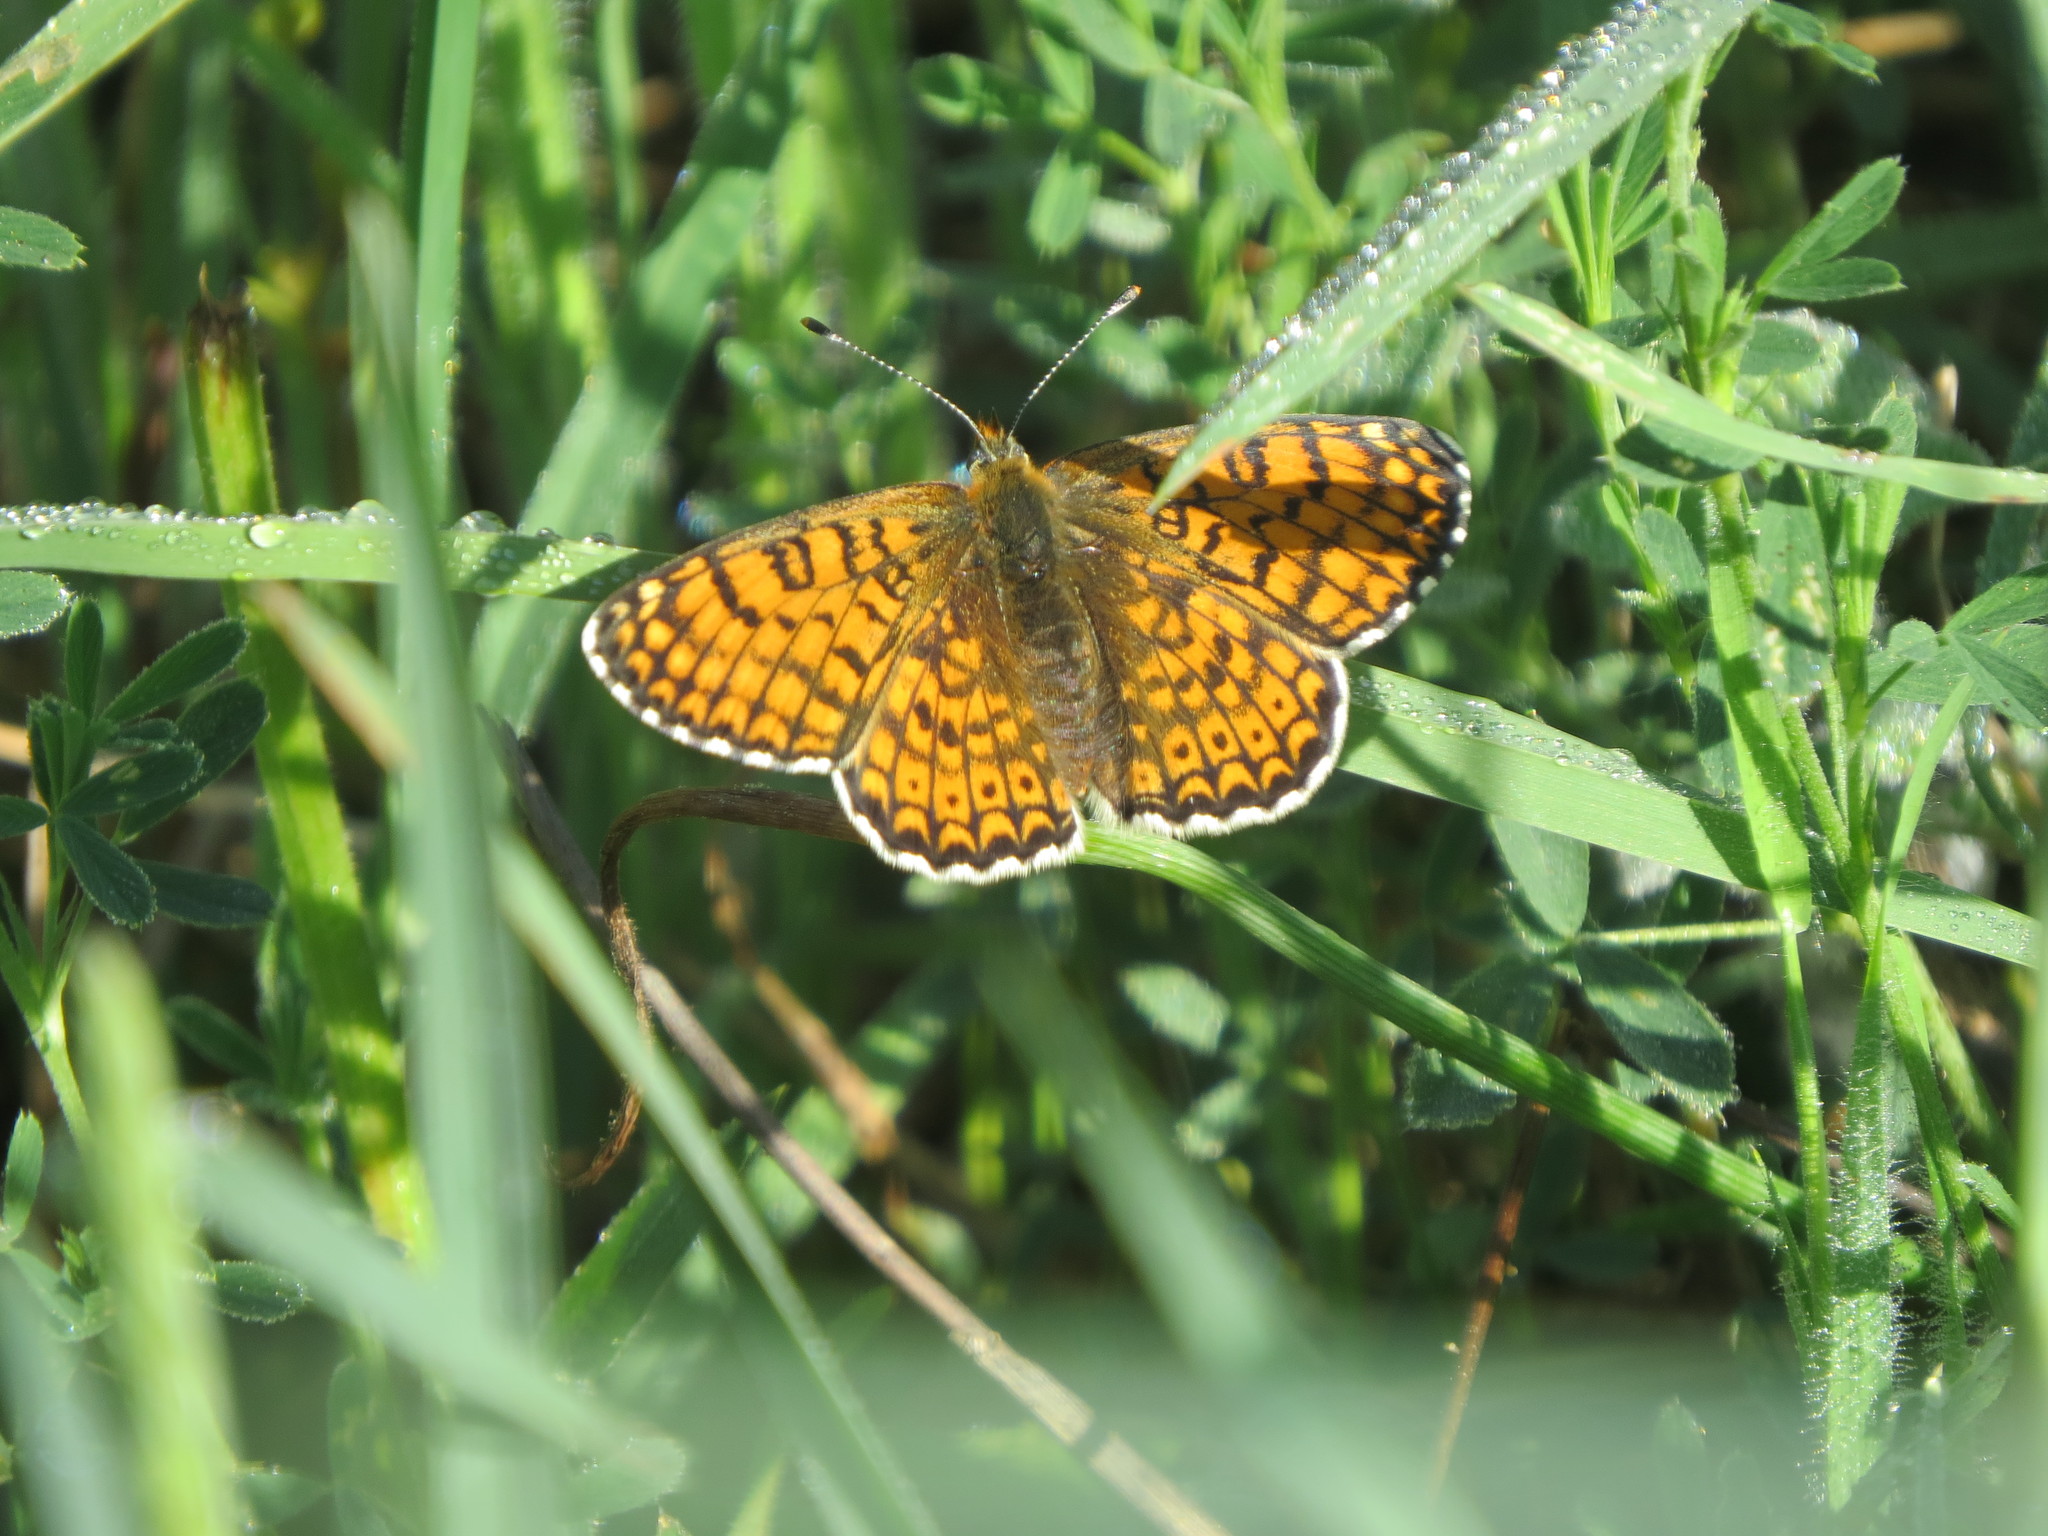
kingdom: Animalia
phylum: Arthropoda
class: Insecta
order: Lepidoptera
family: Nymphalidae
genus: Melitaea
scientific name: Melitaea cinxia
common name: Glanville fritillary
